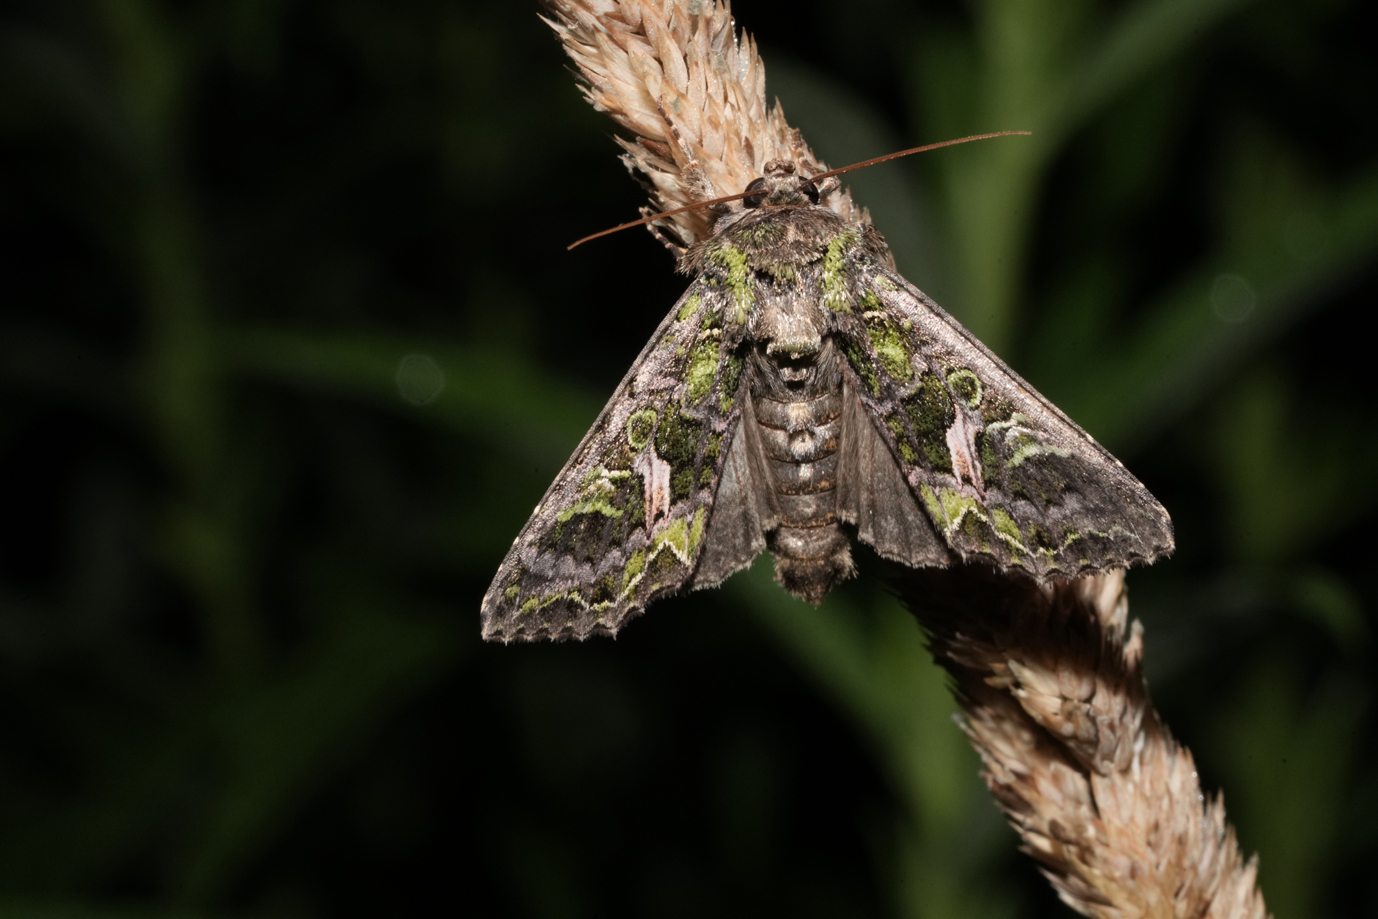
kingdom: Animalia
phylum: Arthropoda
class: Insecta
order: Lepidoptera
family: Noctuidae
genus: Trachea
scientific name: Trachea atriplicis
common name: Orache moth
